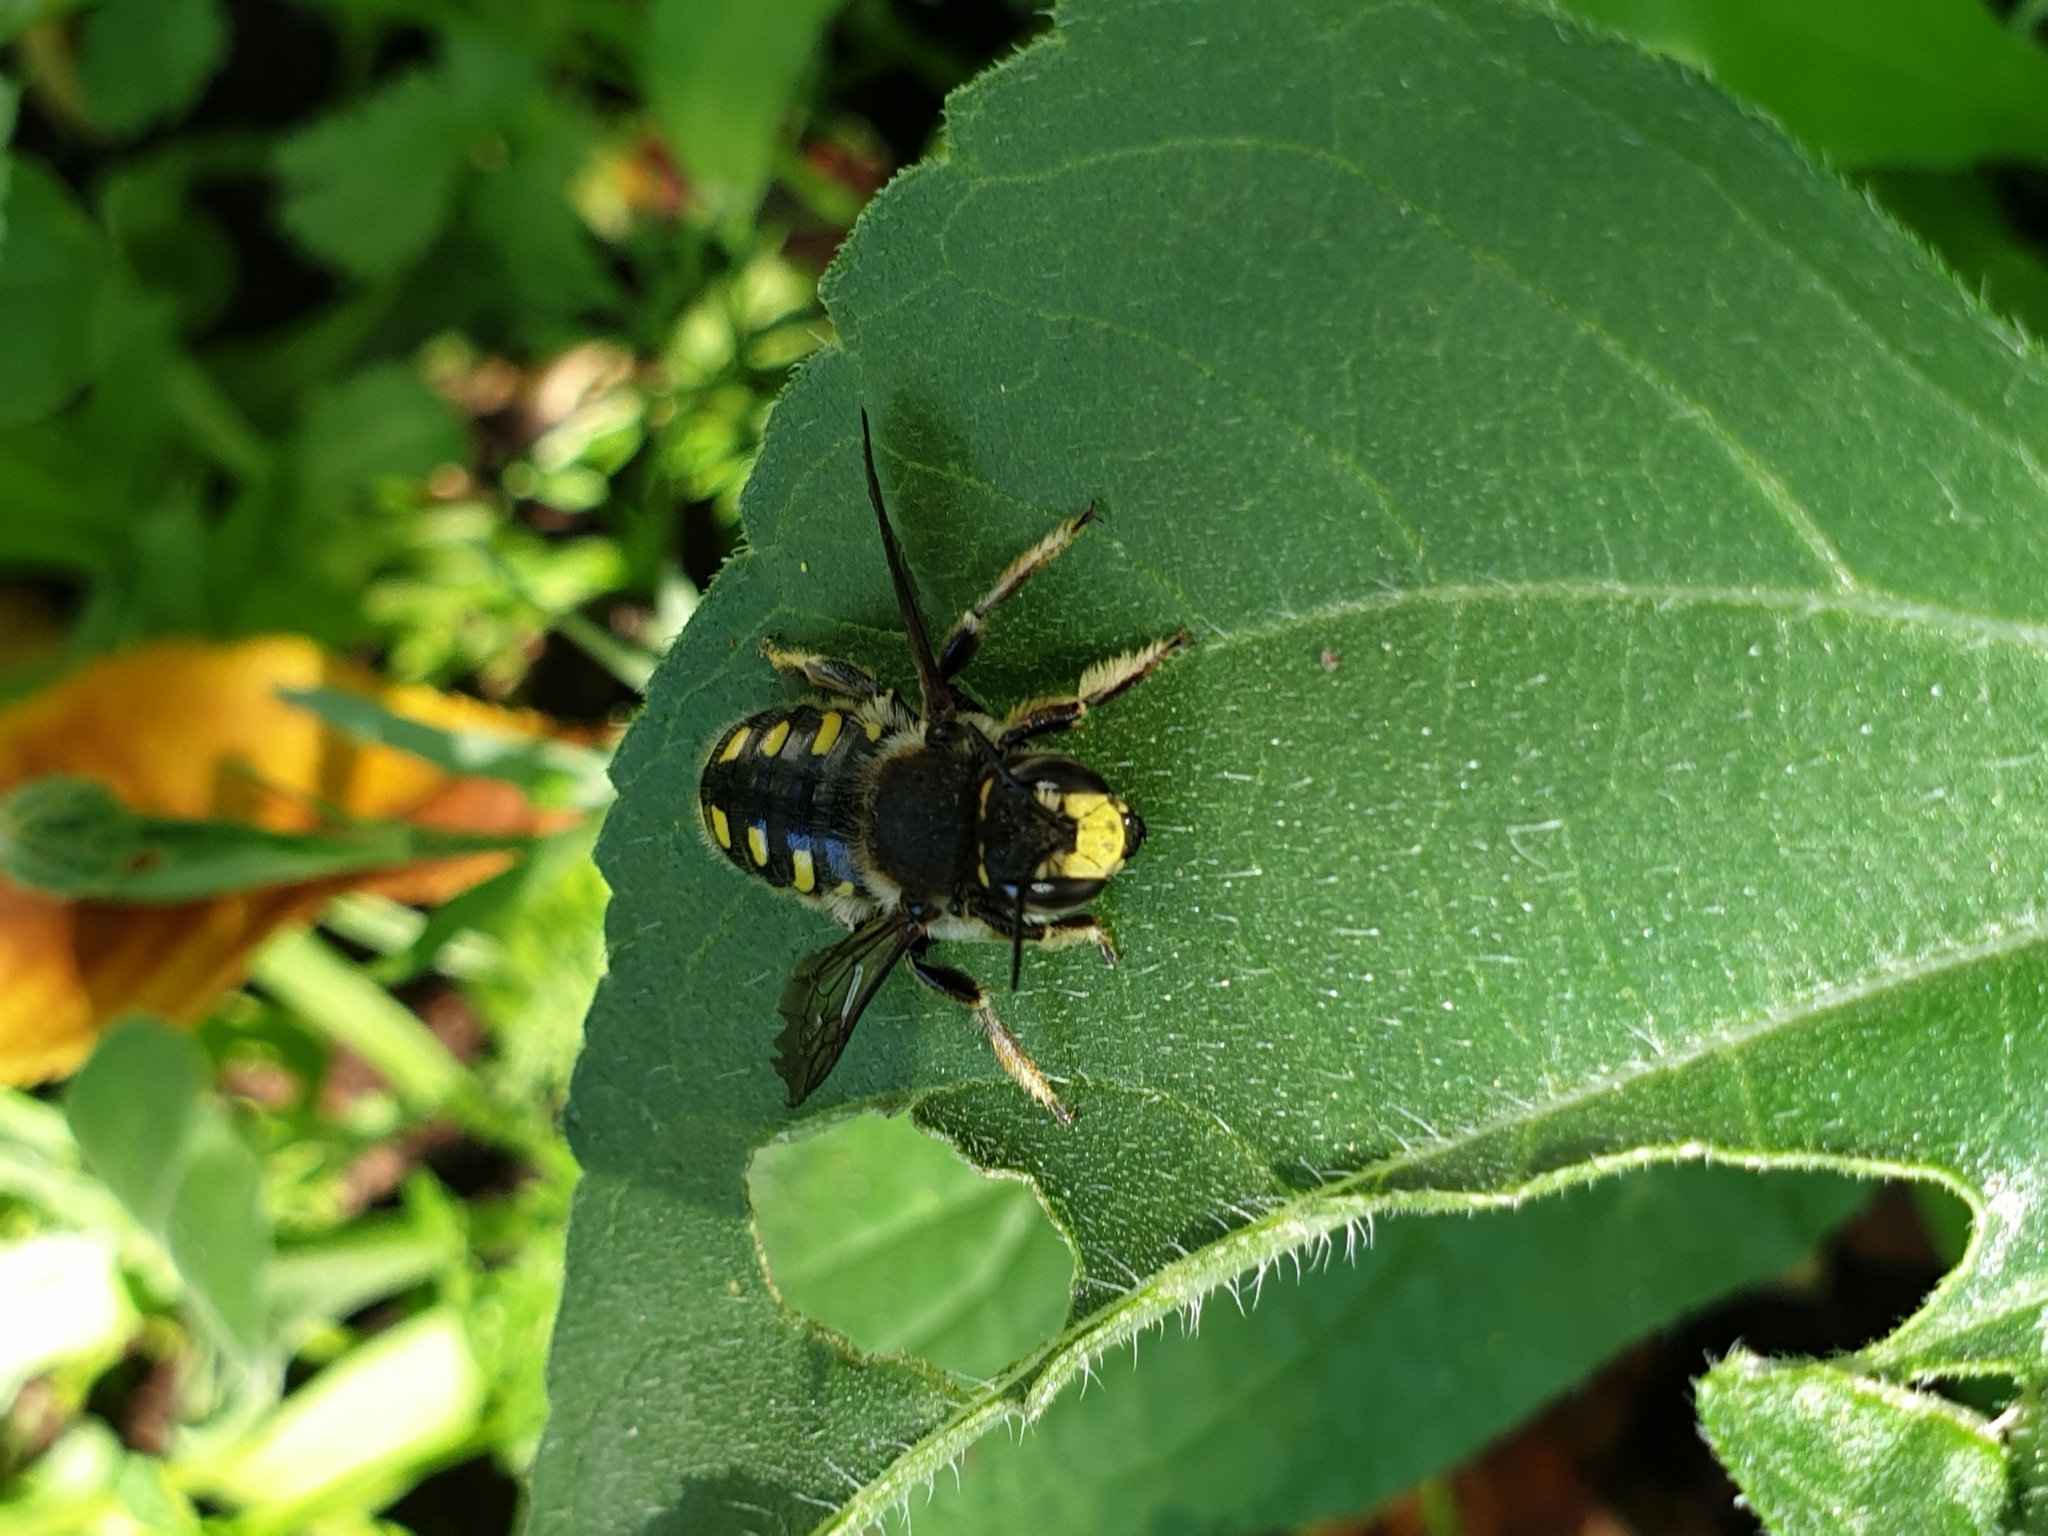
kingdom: Animalia
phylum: Arthropoda
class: Insecta
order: Hymenoptera
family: Megachilidae
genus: Anthidium
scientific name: Anthidium septemspinosum
